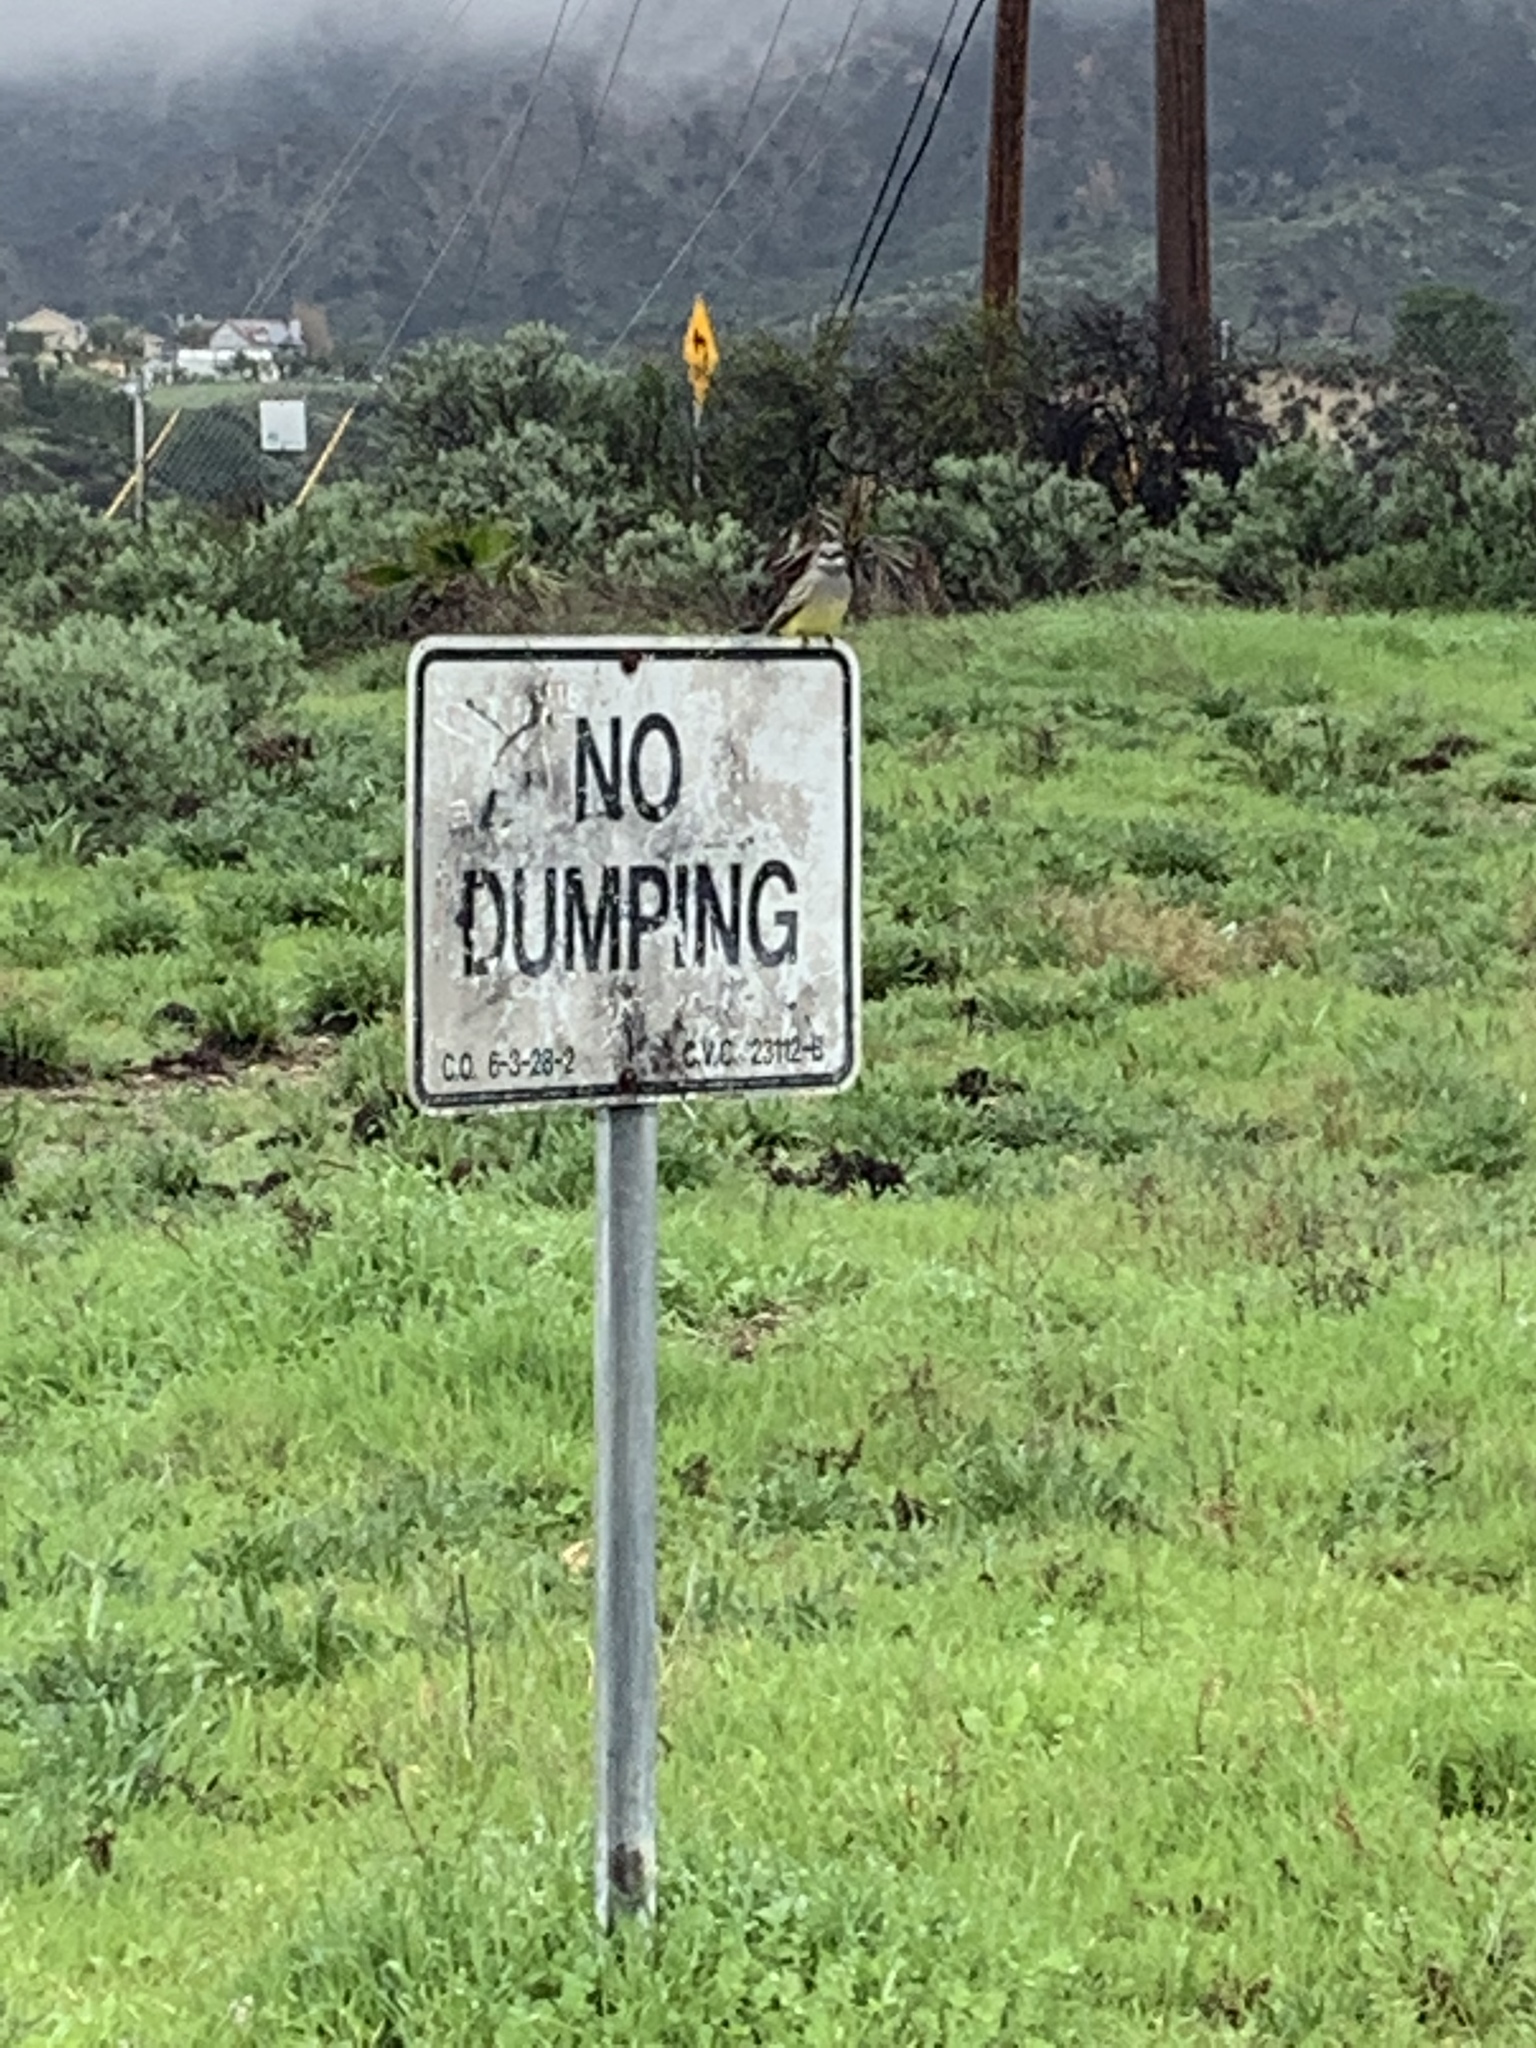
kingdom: Animalia
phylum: Chordata
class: Aves
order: Passeriformes
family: Tyrannidae
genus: Tyrannus
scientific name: Tyrannus vociferans
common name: Cassin's kingbird
